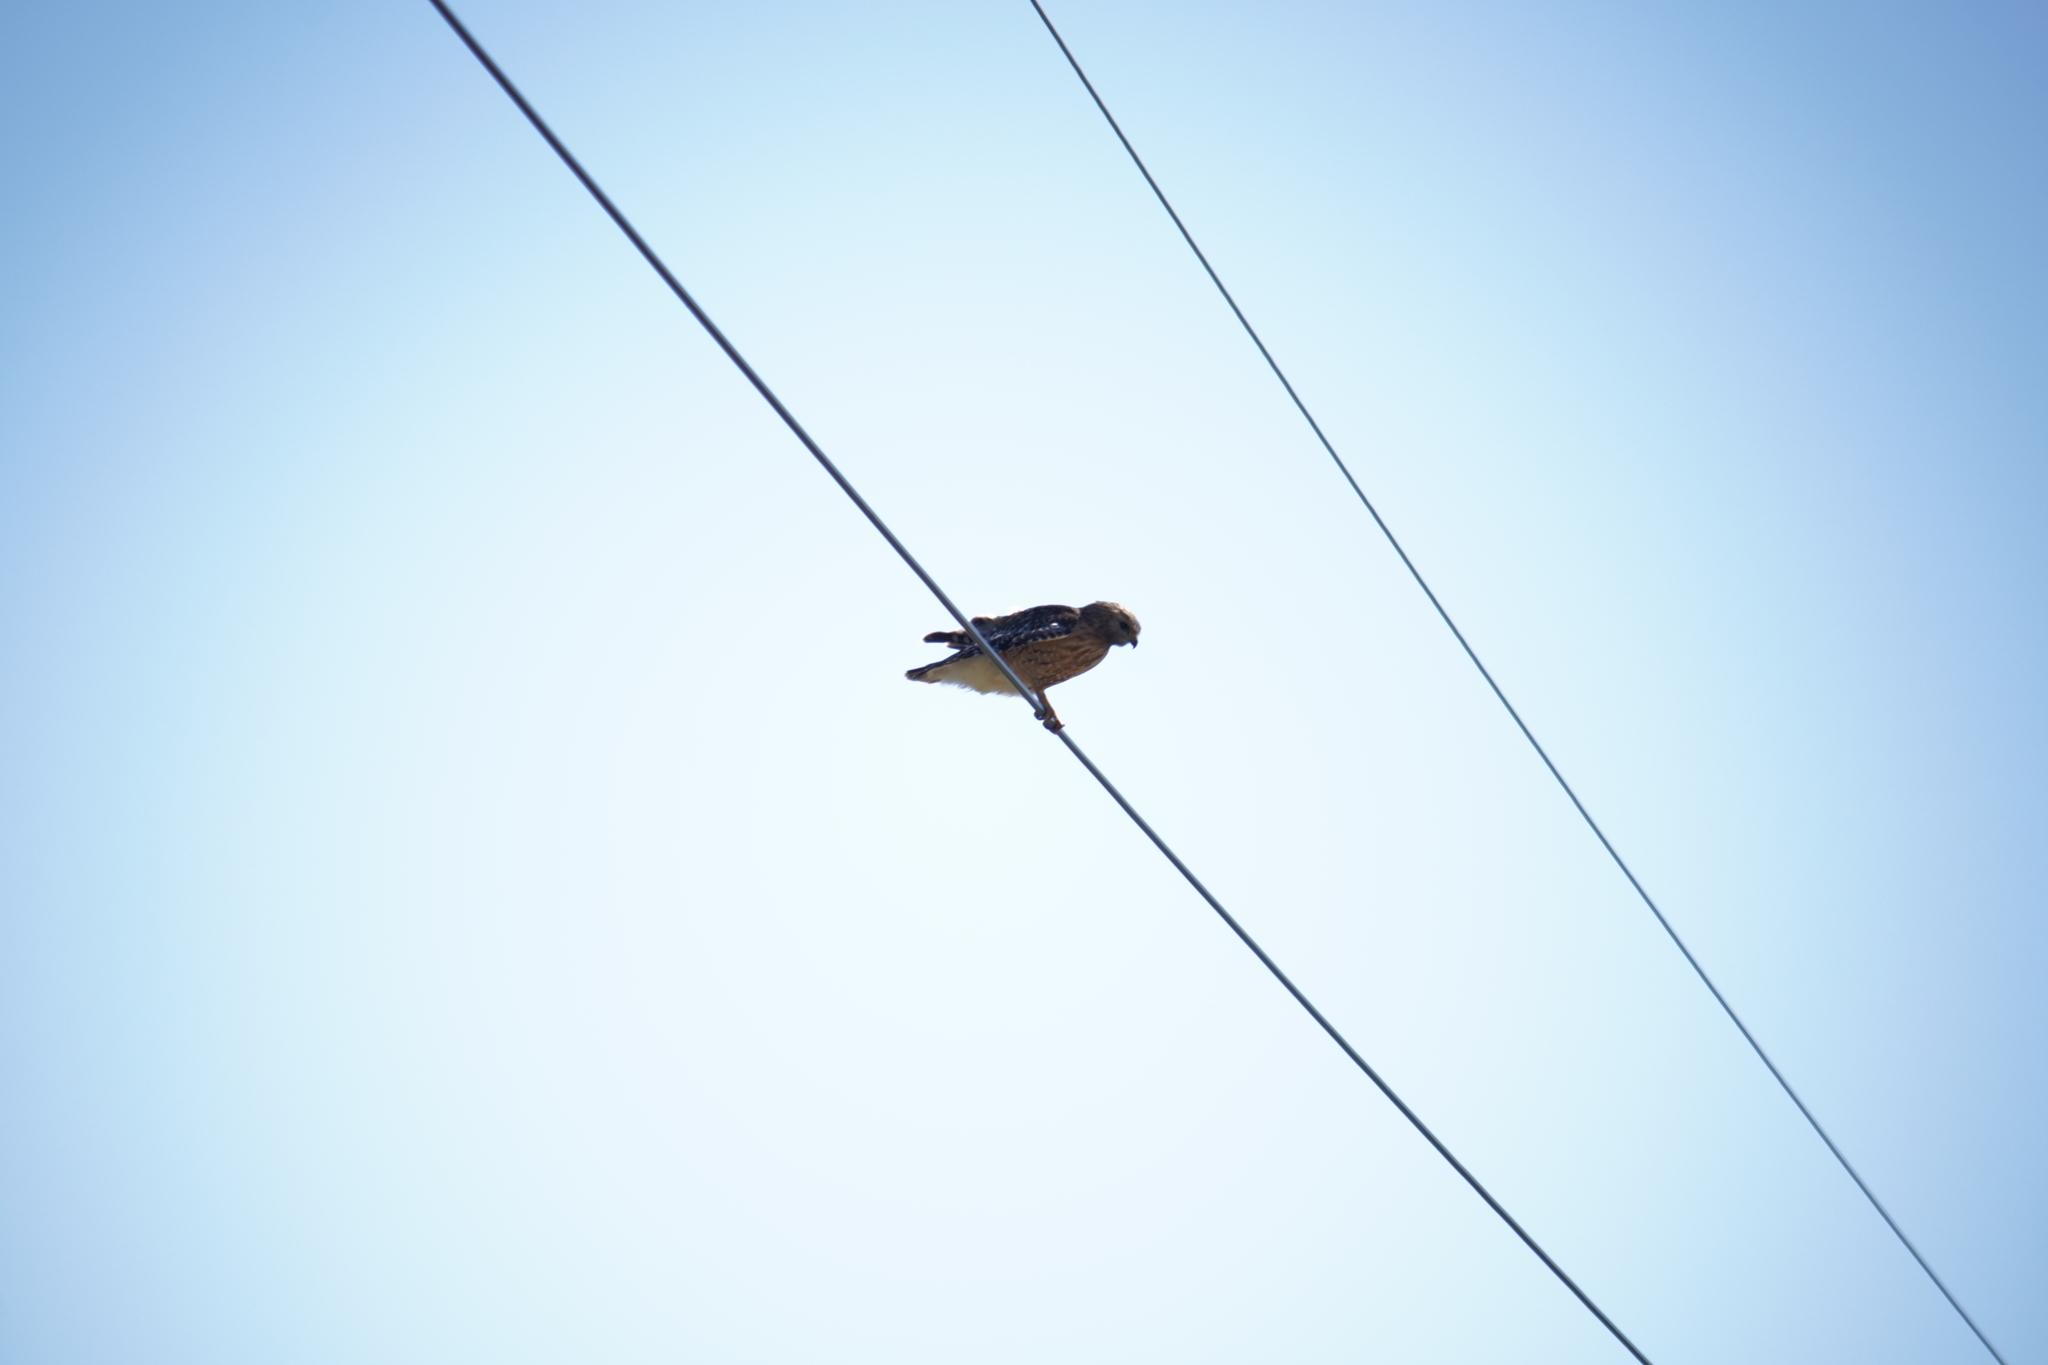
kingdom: Animalia
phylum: Chordata
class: Aves
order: Accipitriformes
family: Accipitridae
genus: Buteo
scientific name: Buteo lineatus
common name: Red-shouldered hawk
